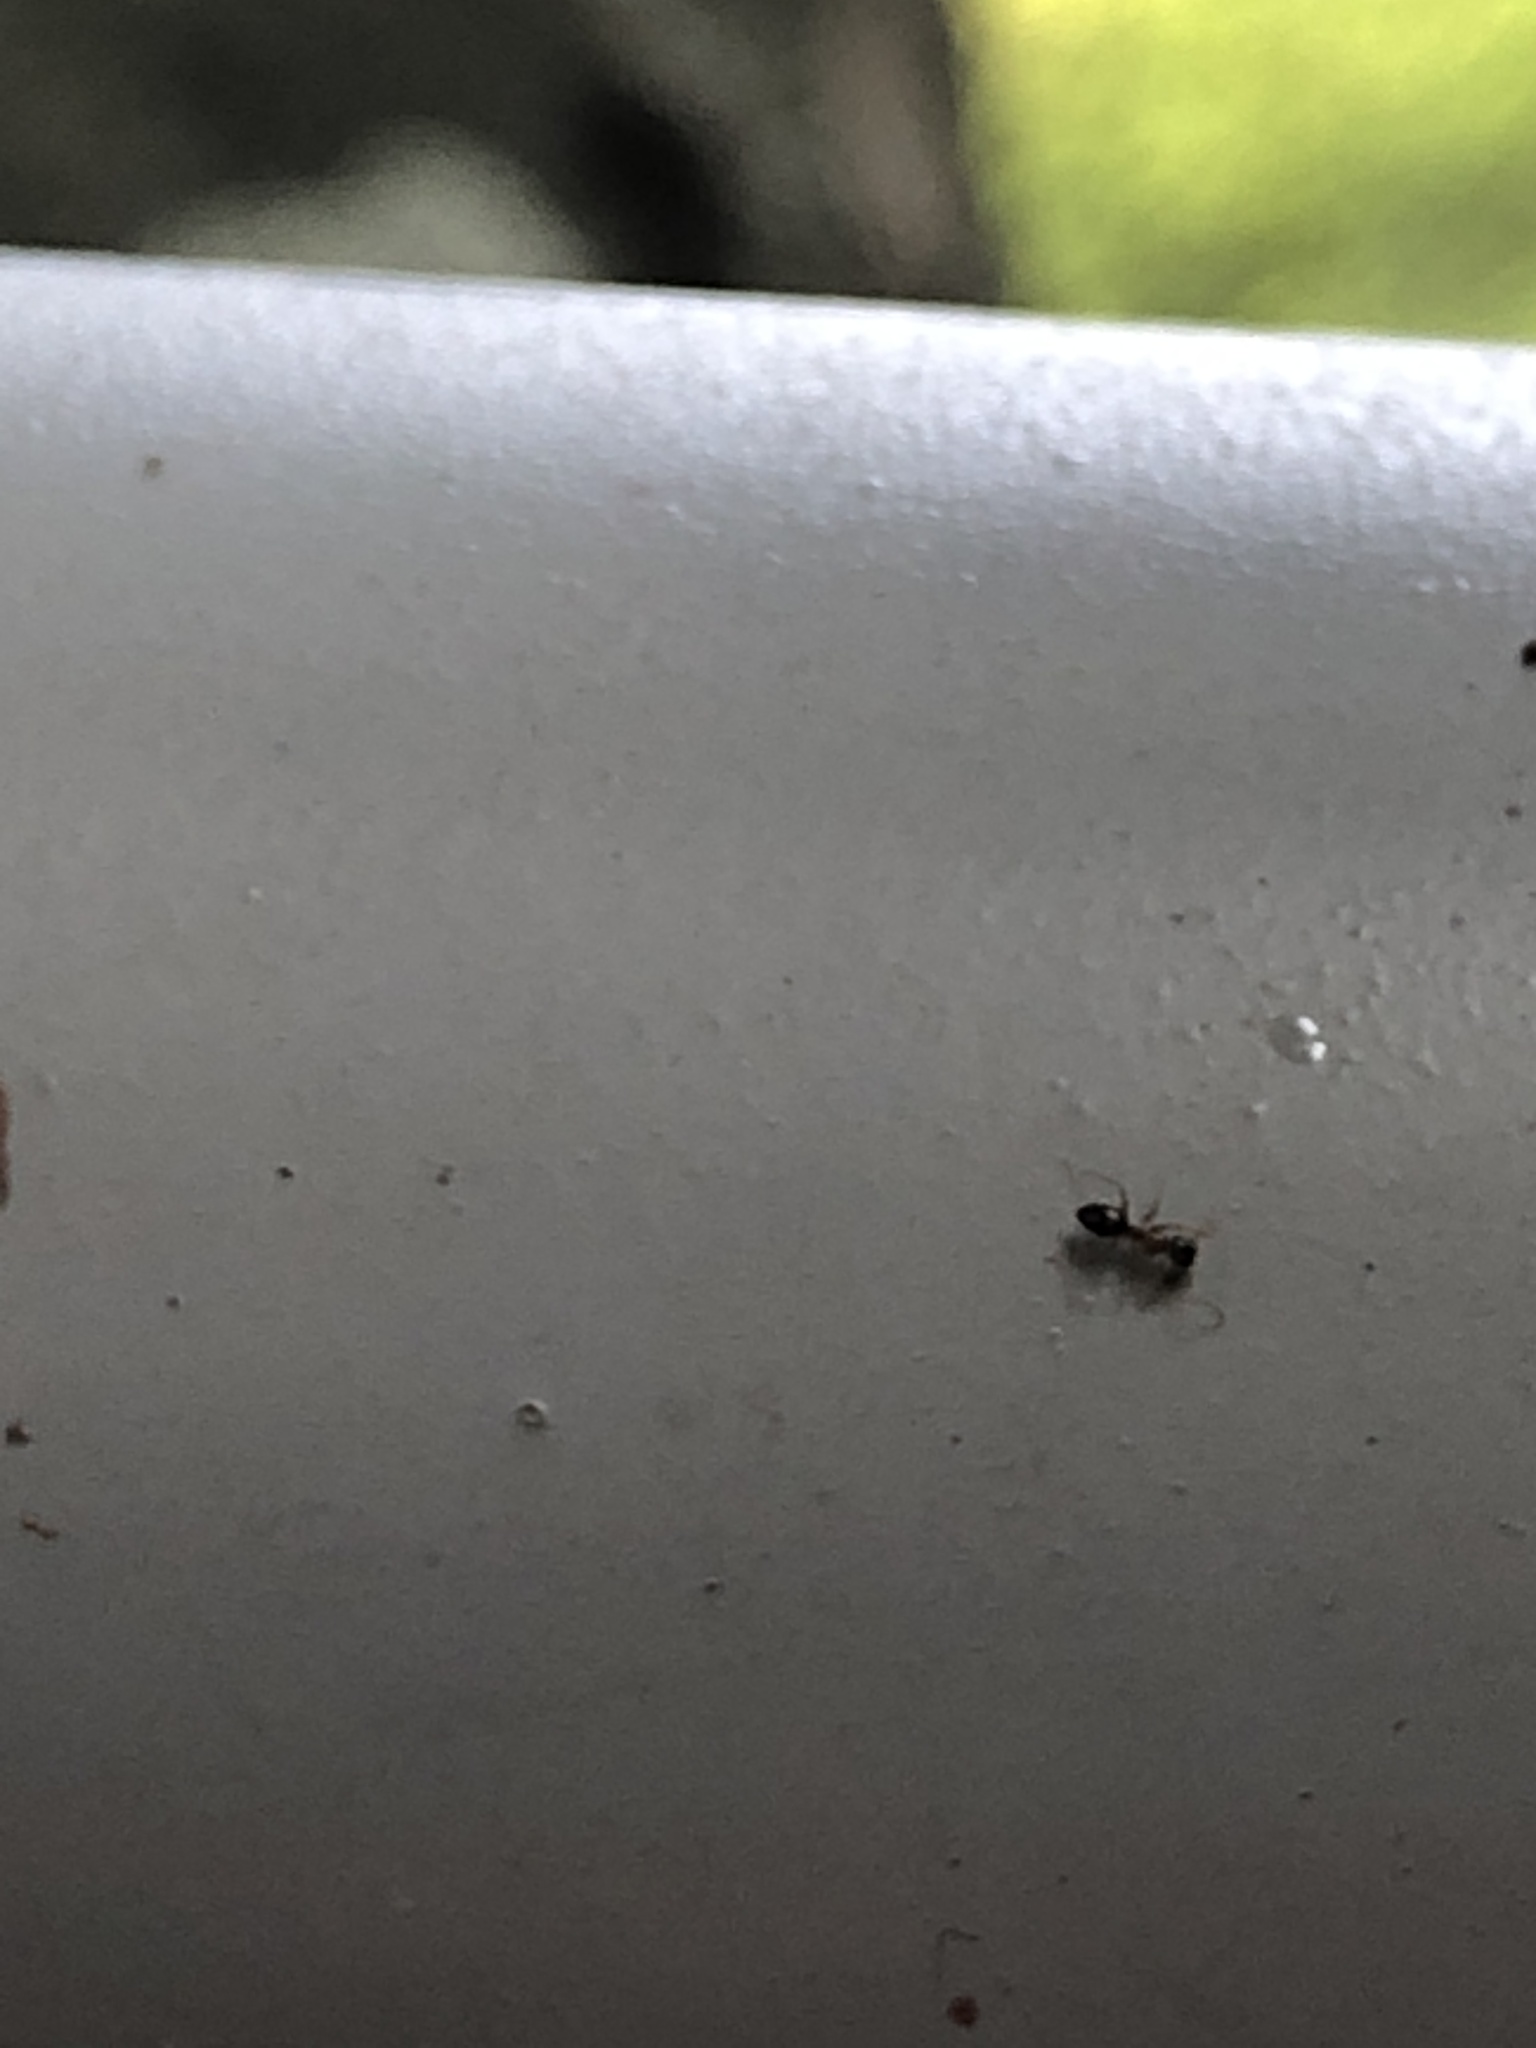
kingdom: Animalia
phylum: Arthropoda
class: Insecta
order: Hymenoptera
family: Formicidae
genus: Paratrechina
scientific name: Paratrechina flavipes
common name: Eastern asian formicine ant
